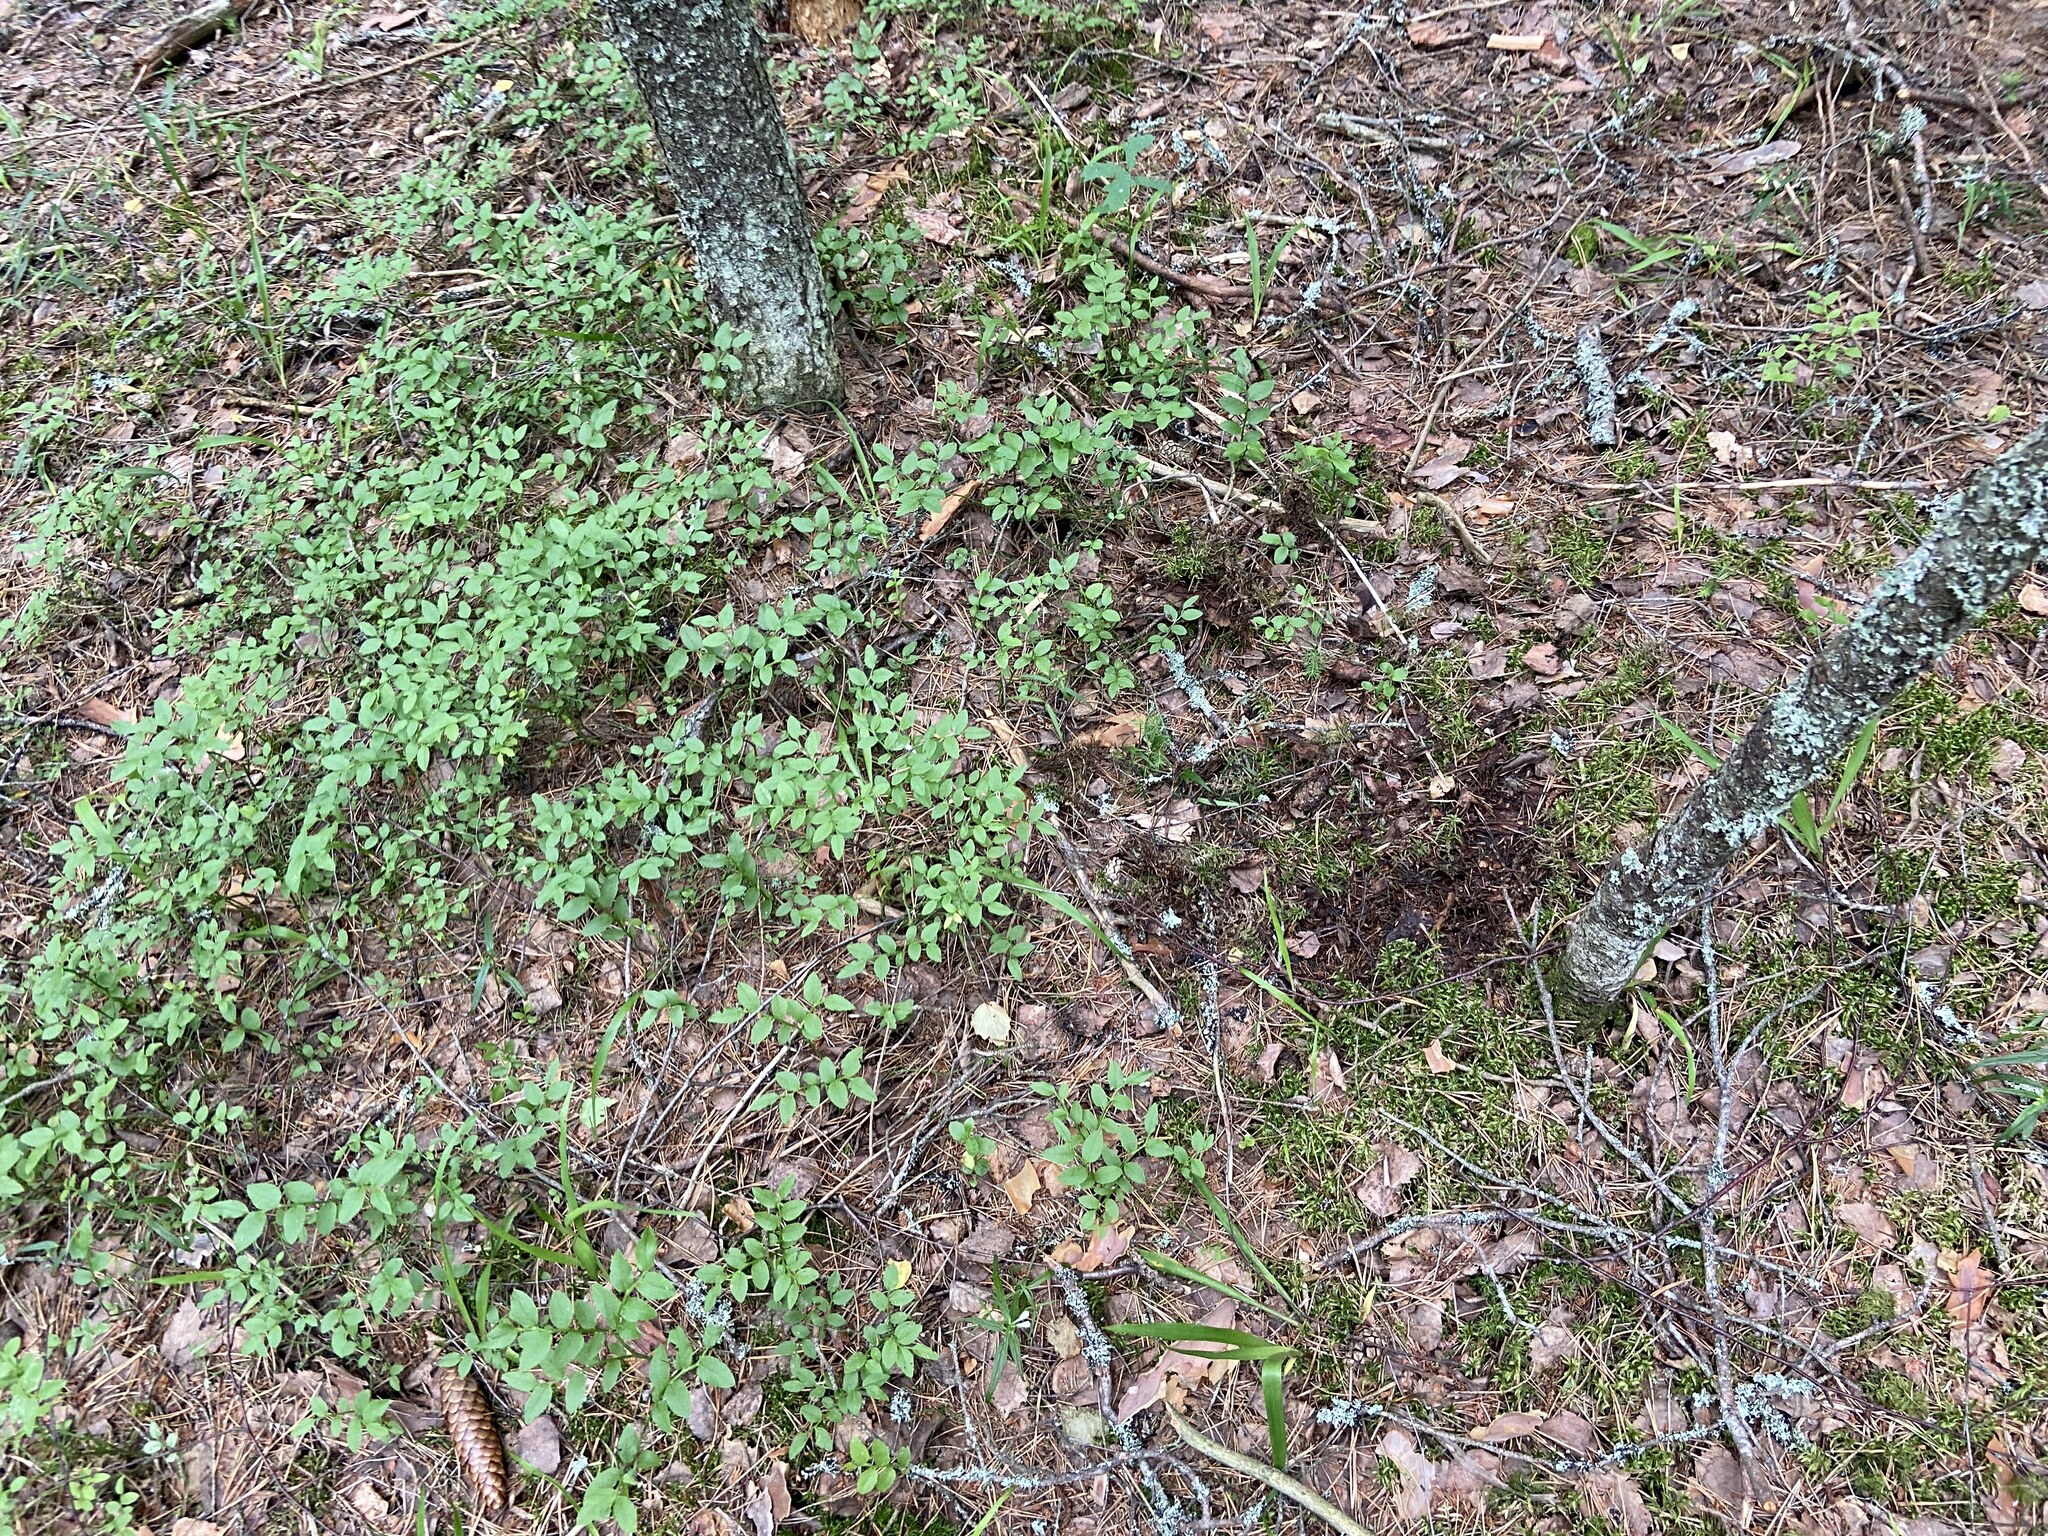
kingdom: Plantae
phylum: Tracheophyta
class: Magnoliopsida
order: Ericales
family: Ericaceae
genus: Vaccinium
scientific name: Vaccinium myrtillus
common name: Bilberry
